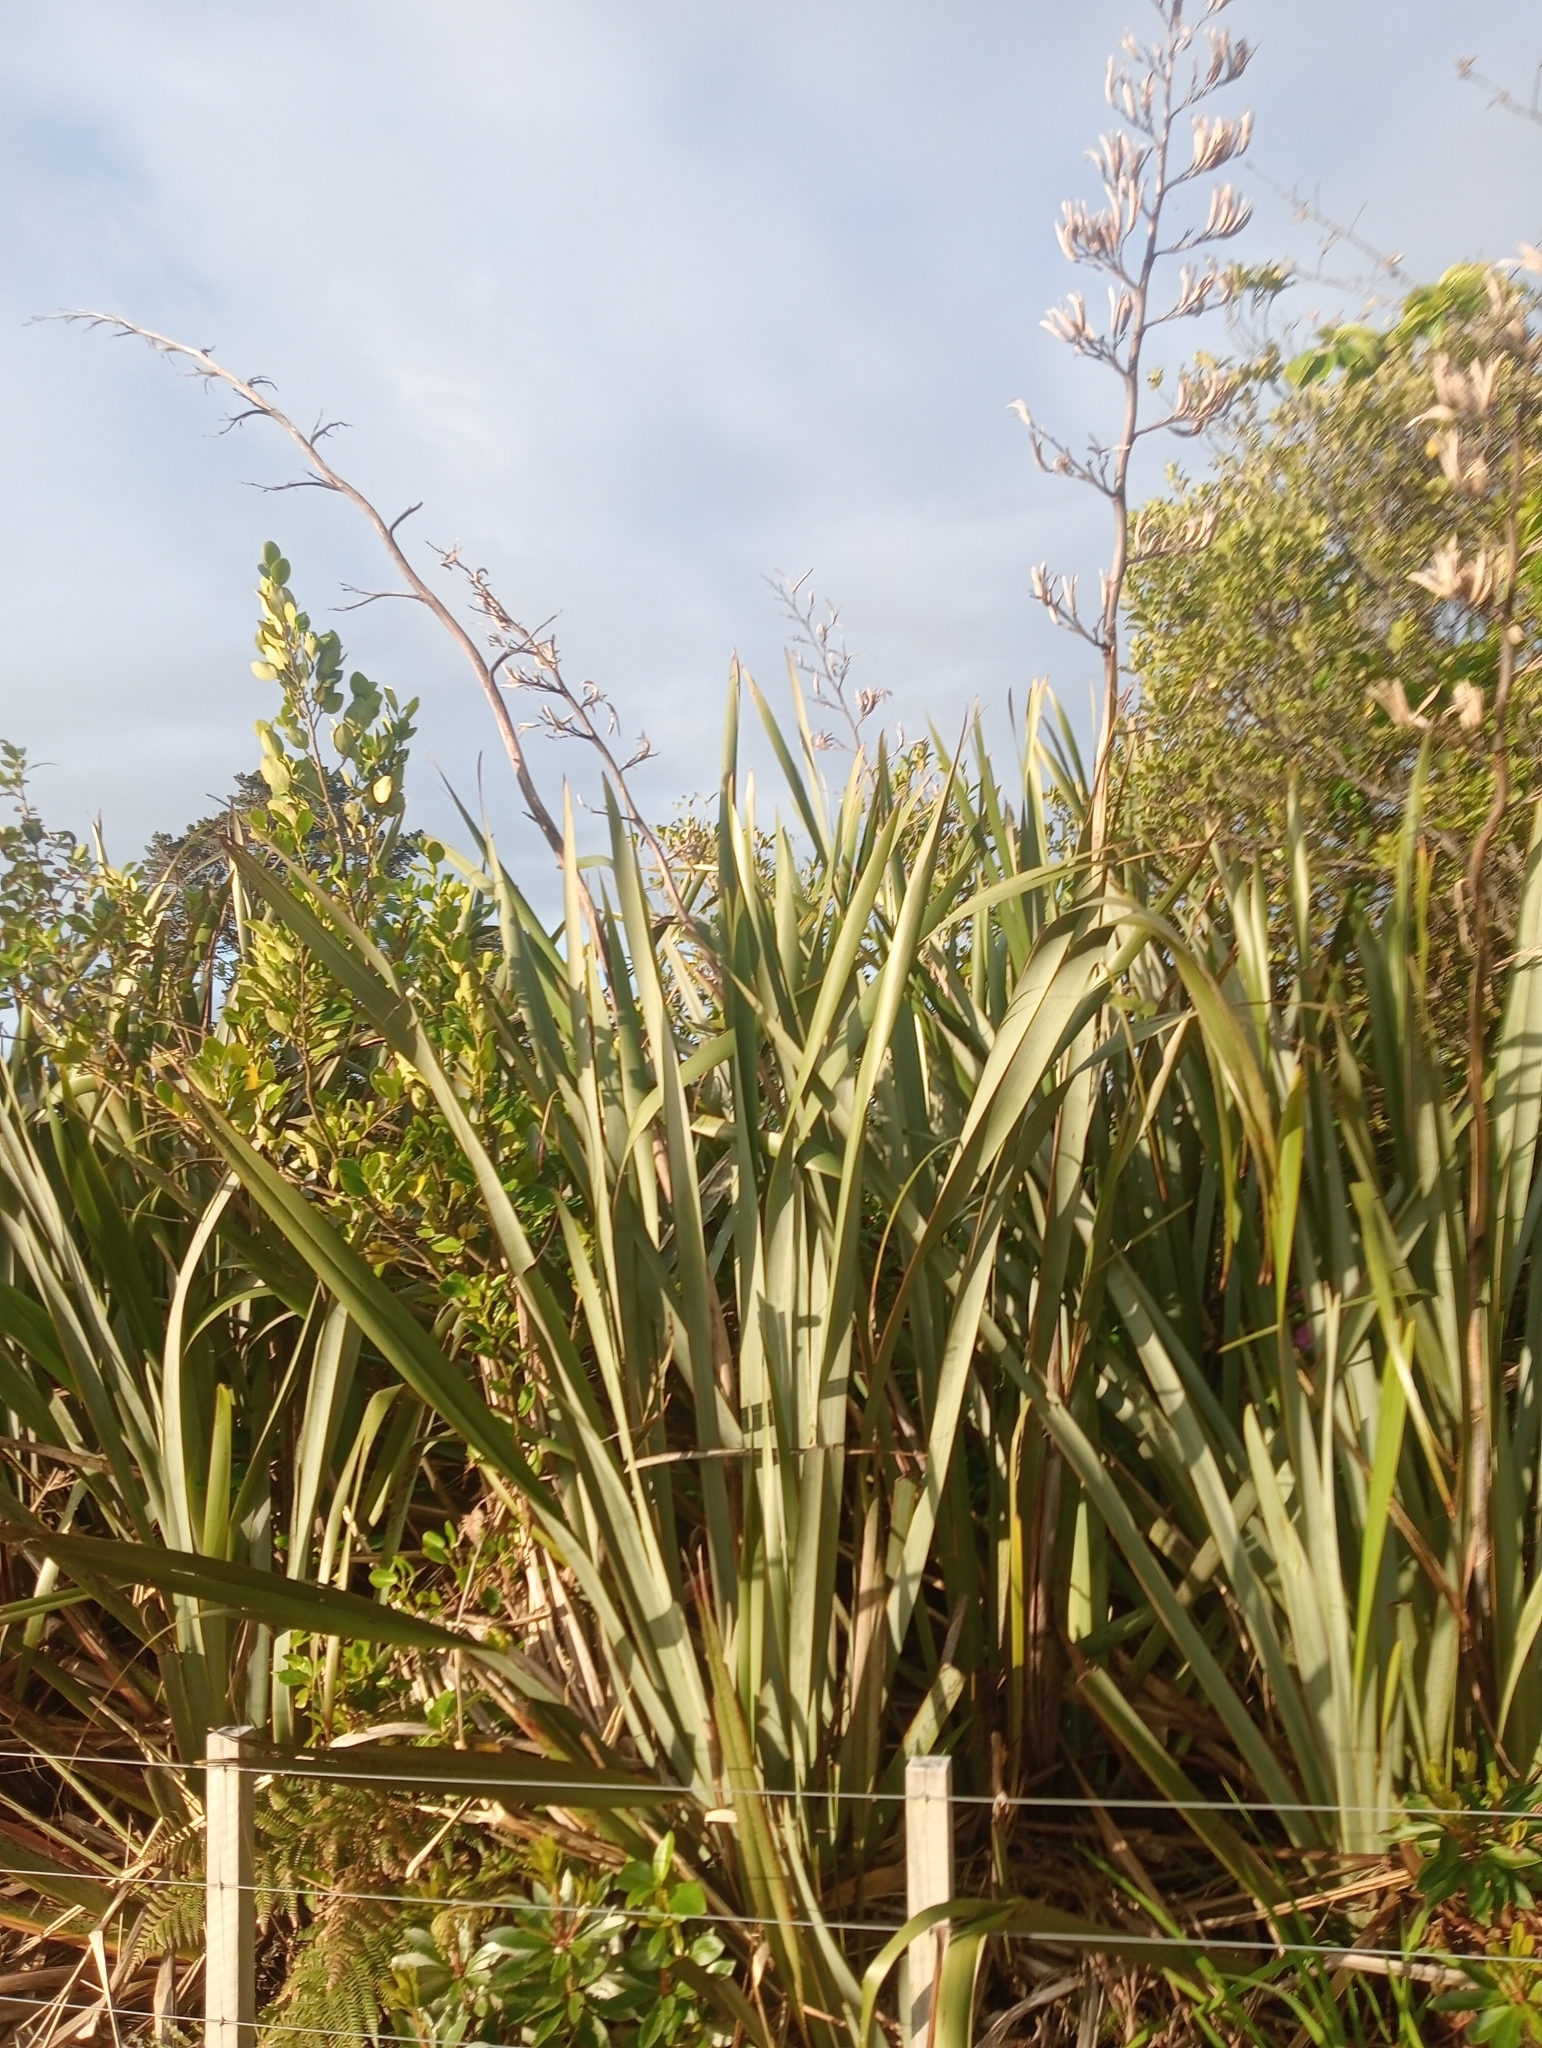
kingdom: Plantae
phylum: Tracheophyta
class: Liliopsida
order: Asparagales
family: Asphodelaceae
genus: Phormium
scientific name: Phormium tenax
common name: New zealand flax
